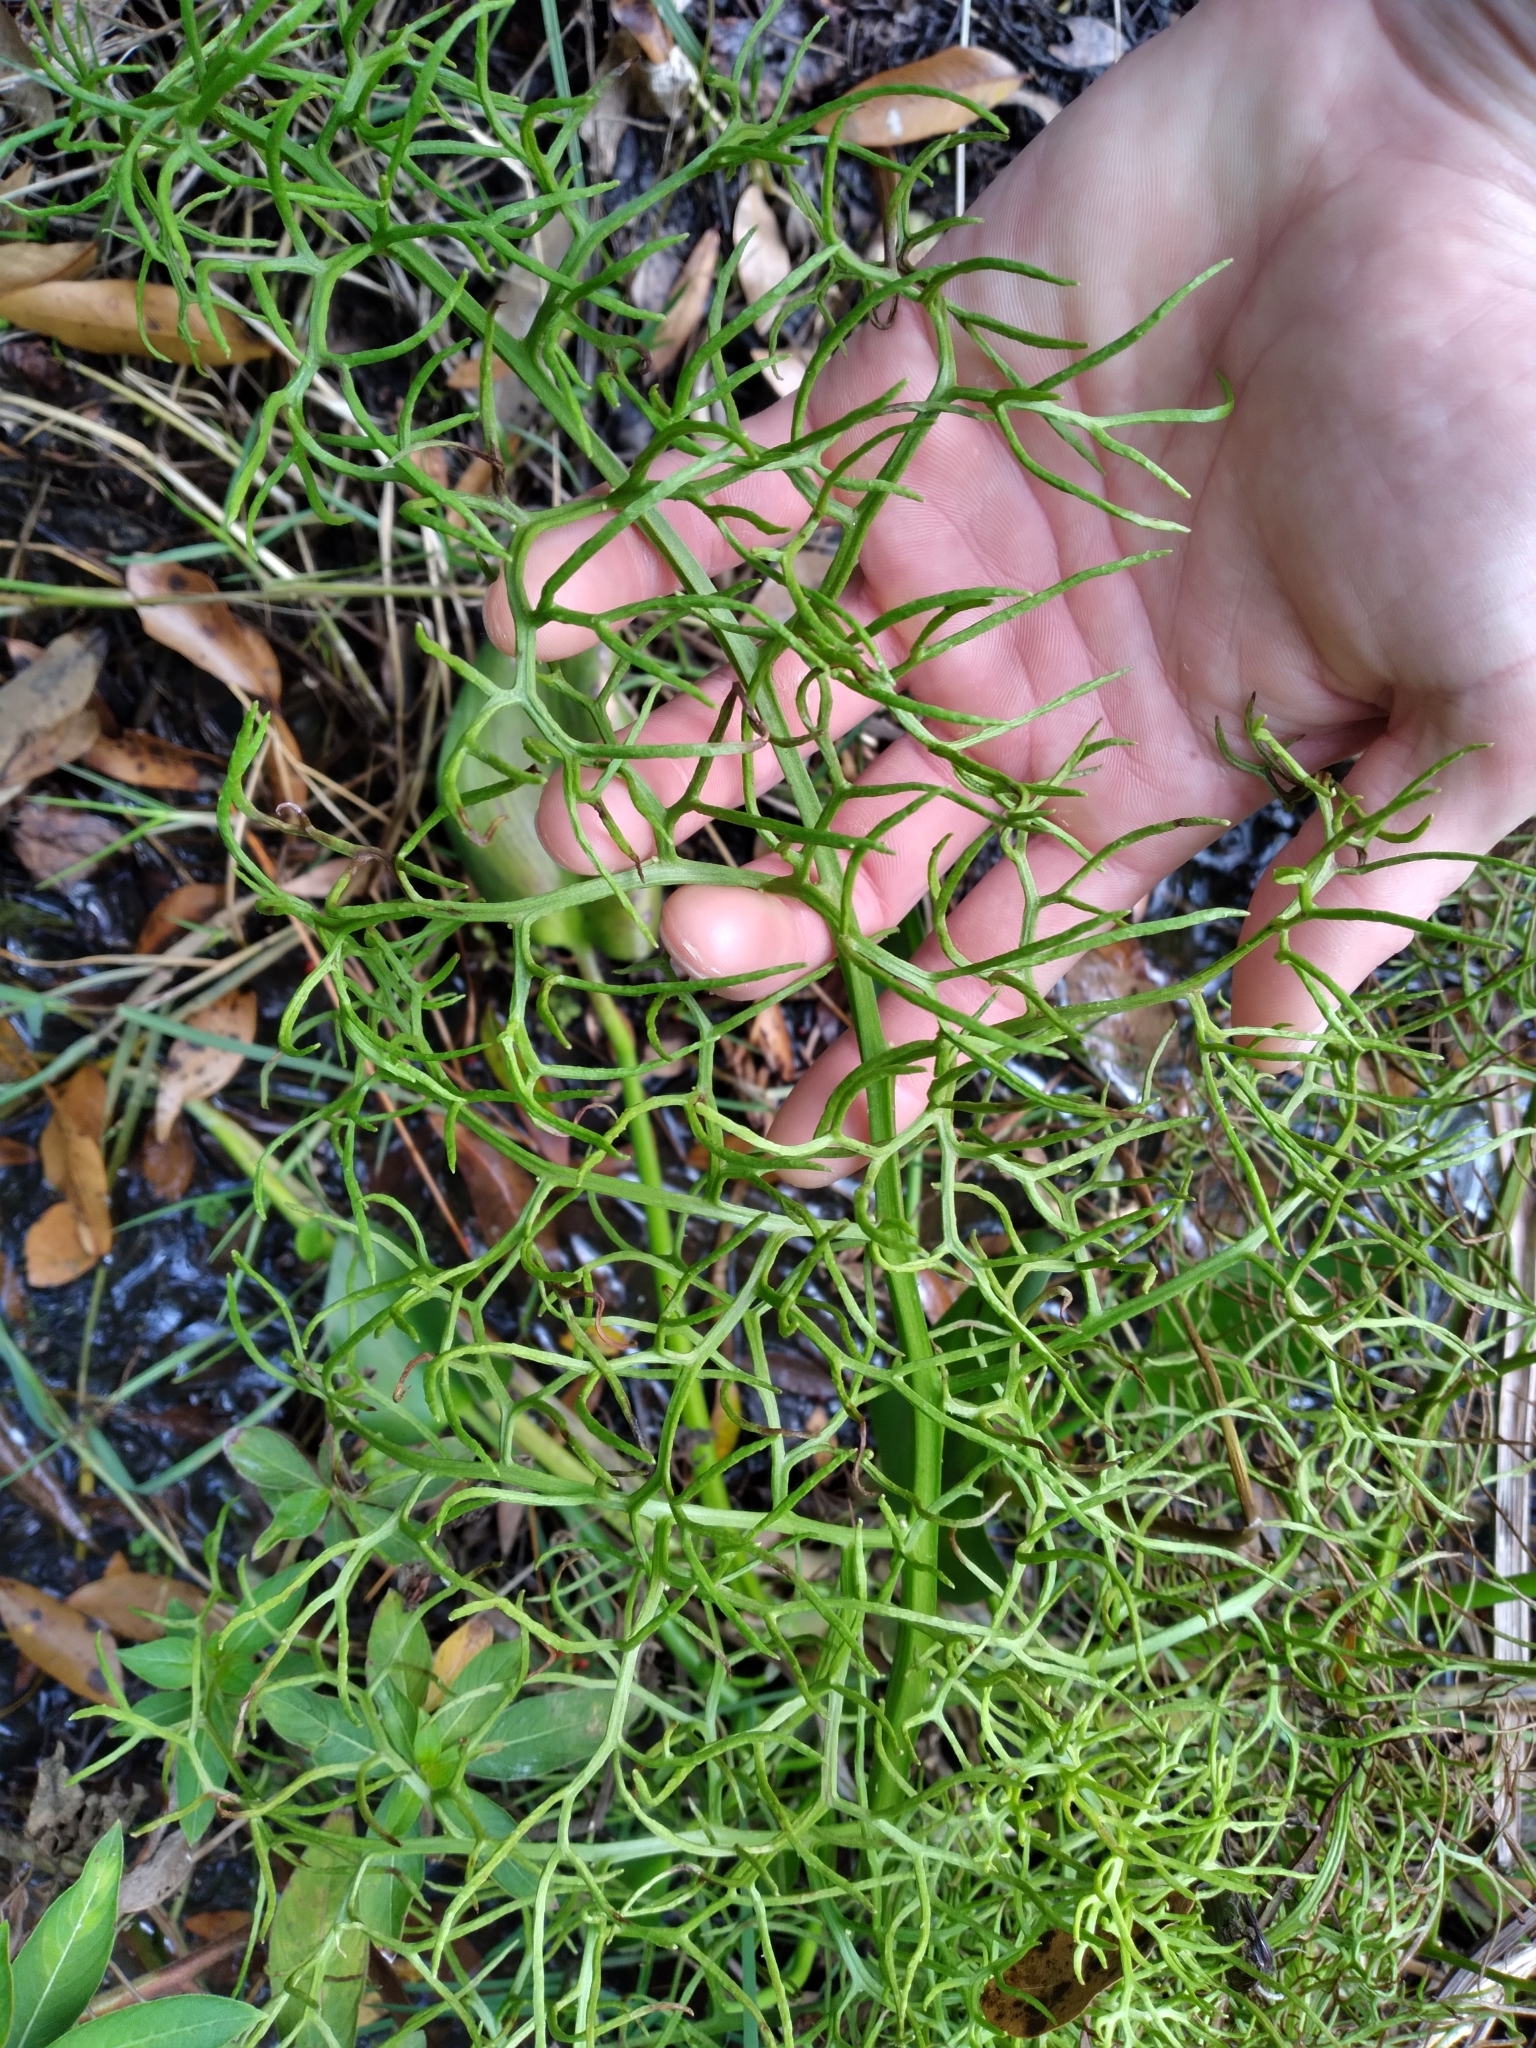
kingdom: Plantae
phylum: Tracheophyta
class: Polypodiopsida
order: Polypodiales
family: Pteridaceae
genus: Ceratopteris
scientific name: Ceratopteris thalictroides
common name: Water fern
